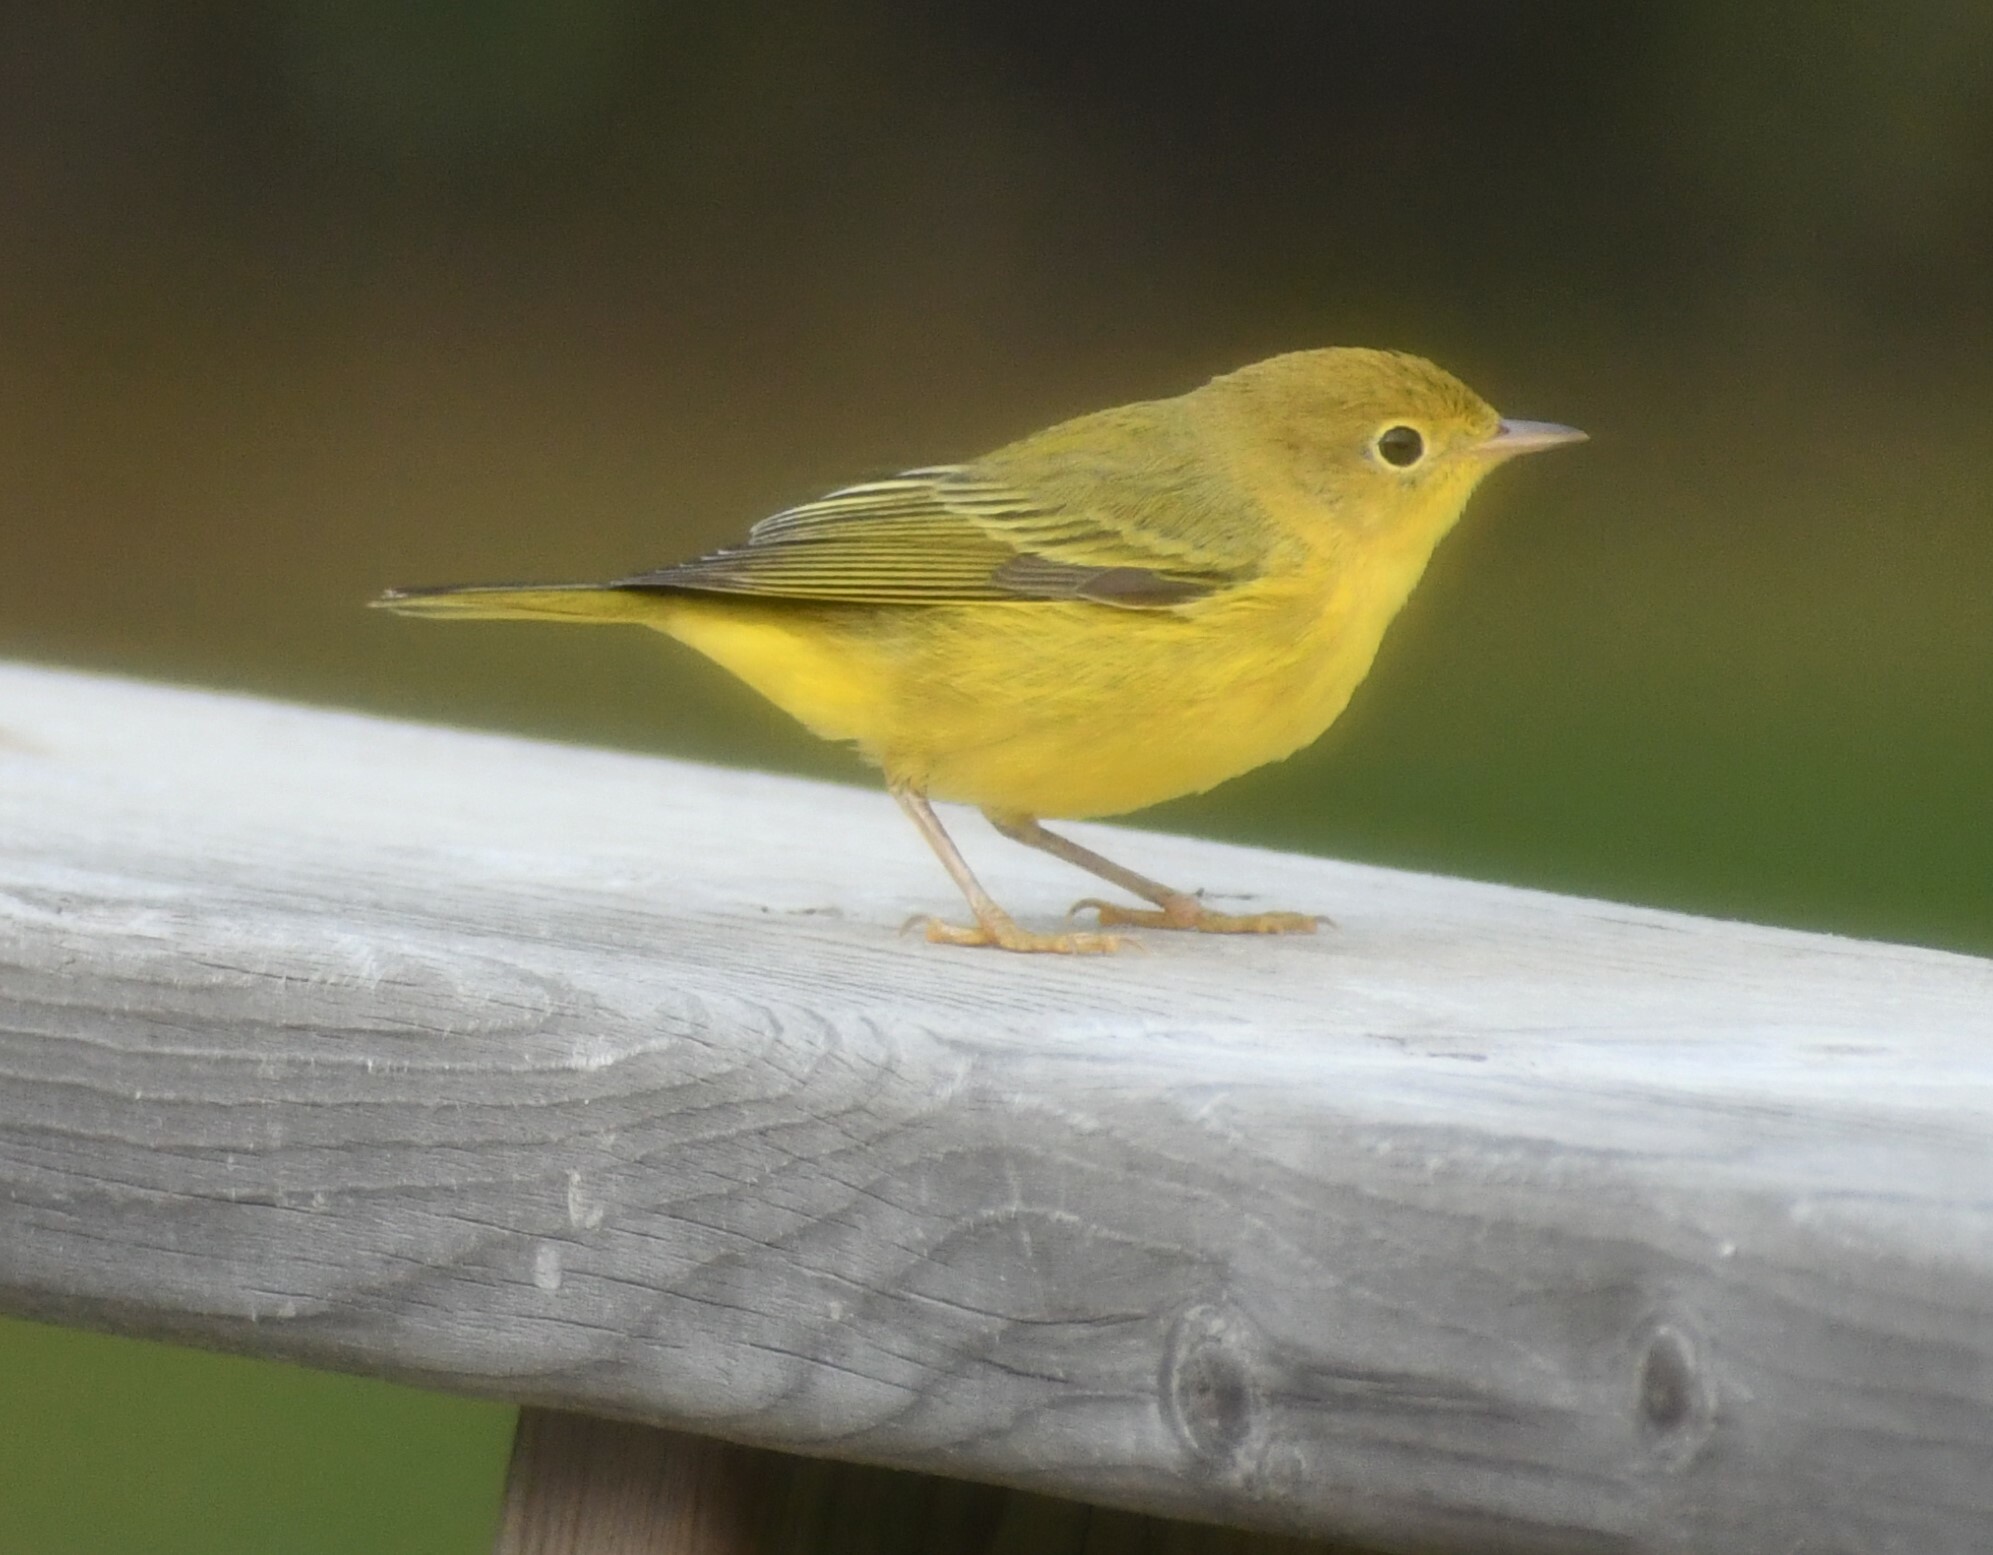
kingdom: Animalia
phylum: Chordata
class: Aves
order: Passeriformes
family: Parulidae
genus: Setophaga
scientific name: Setophaga petechia
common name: Yellow warbler
